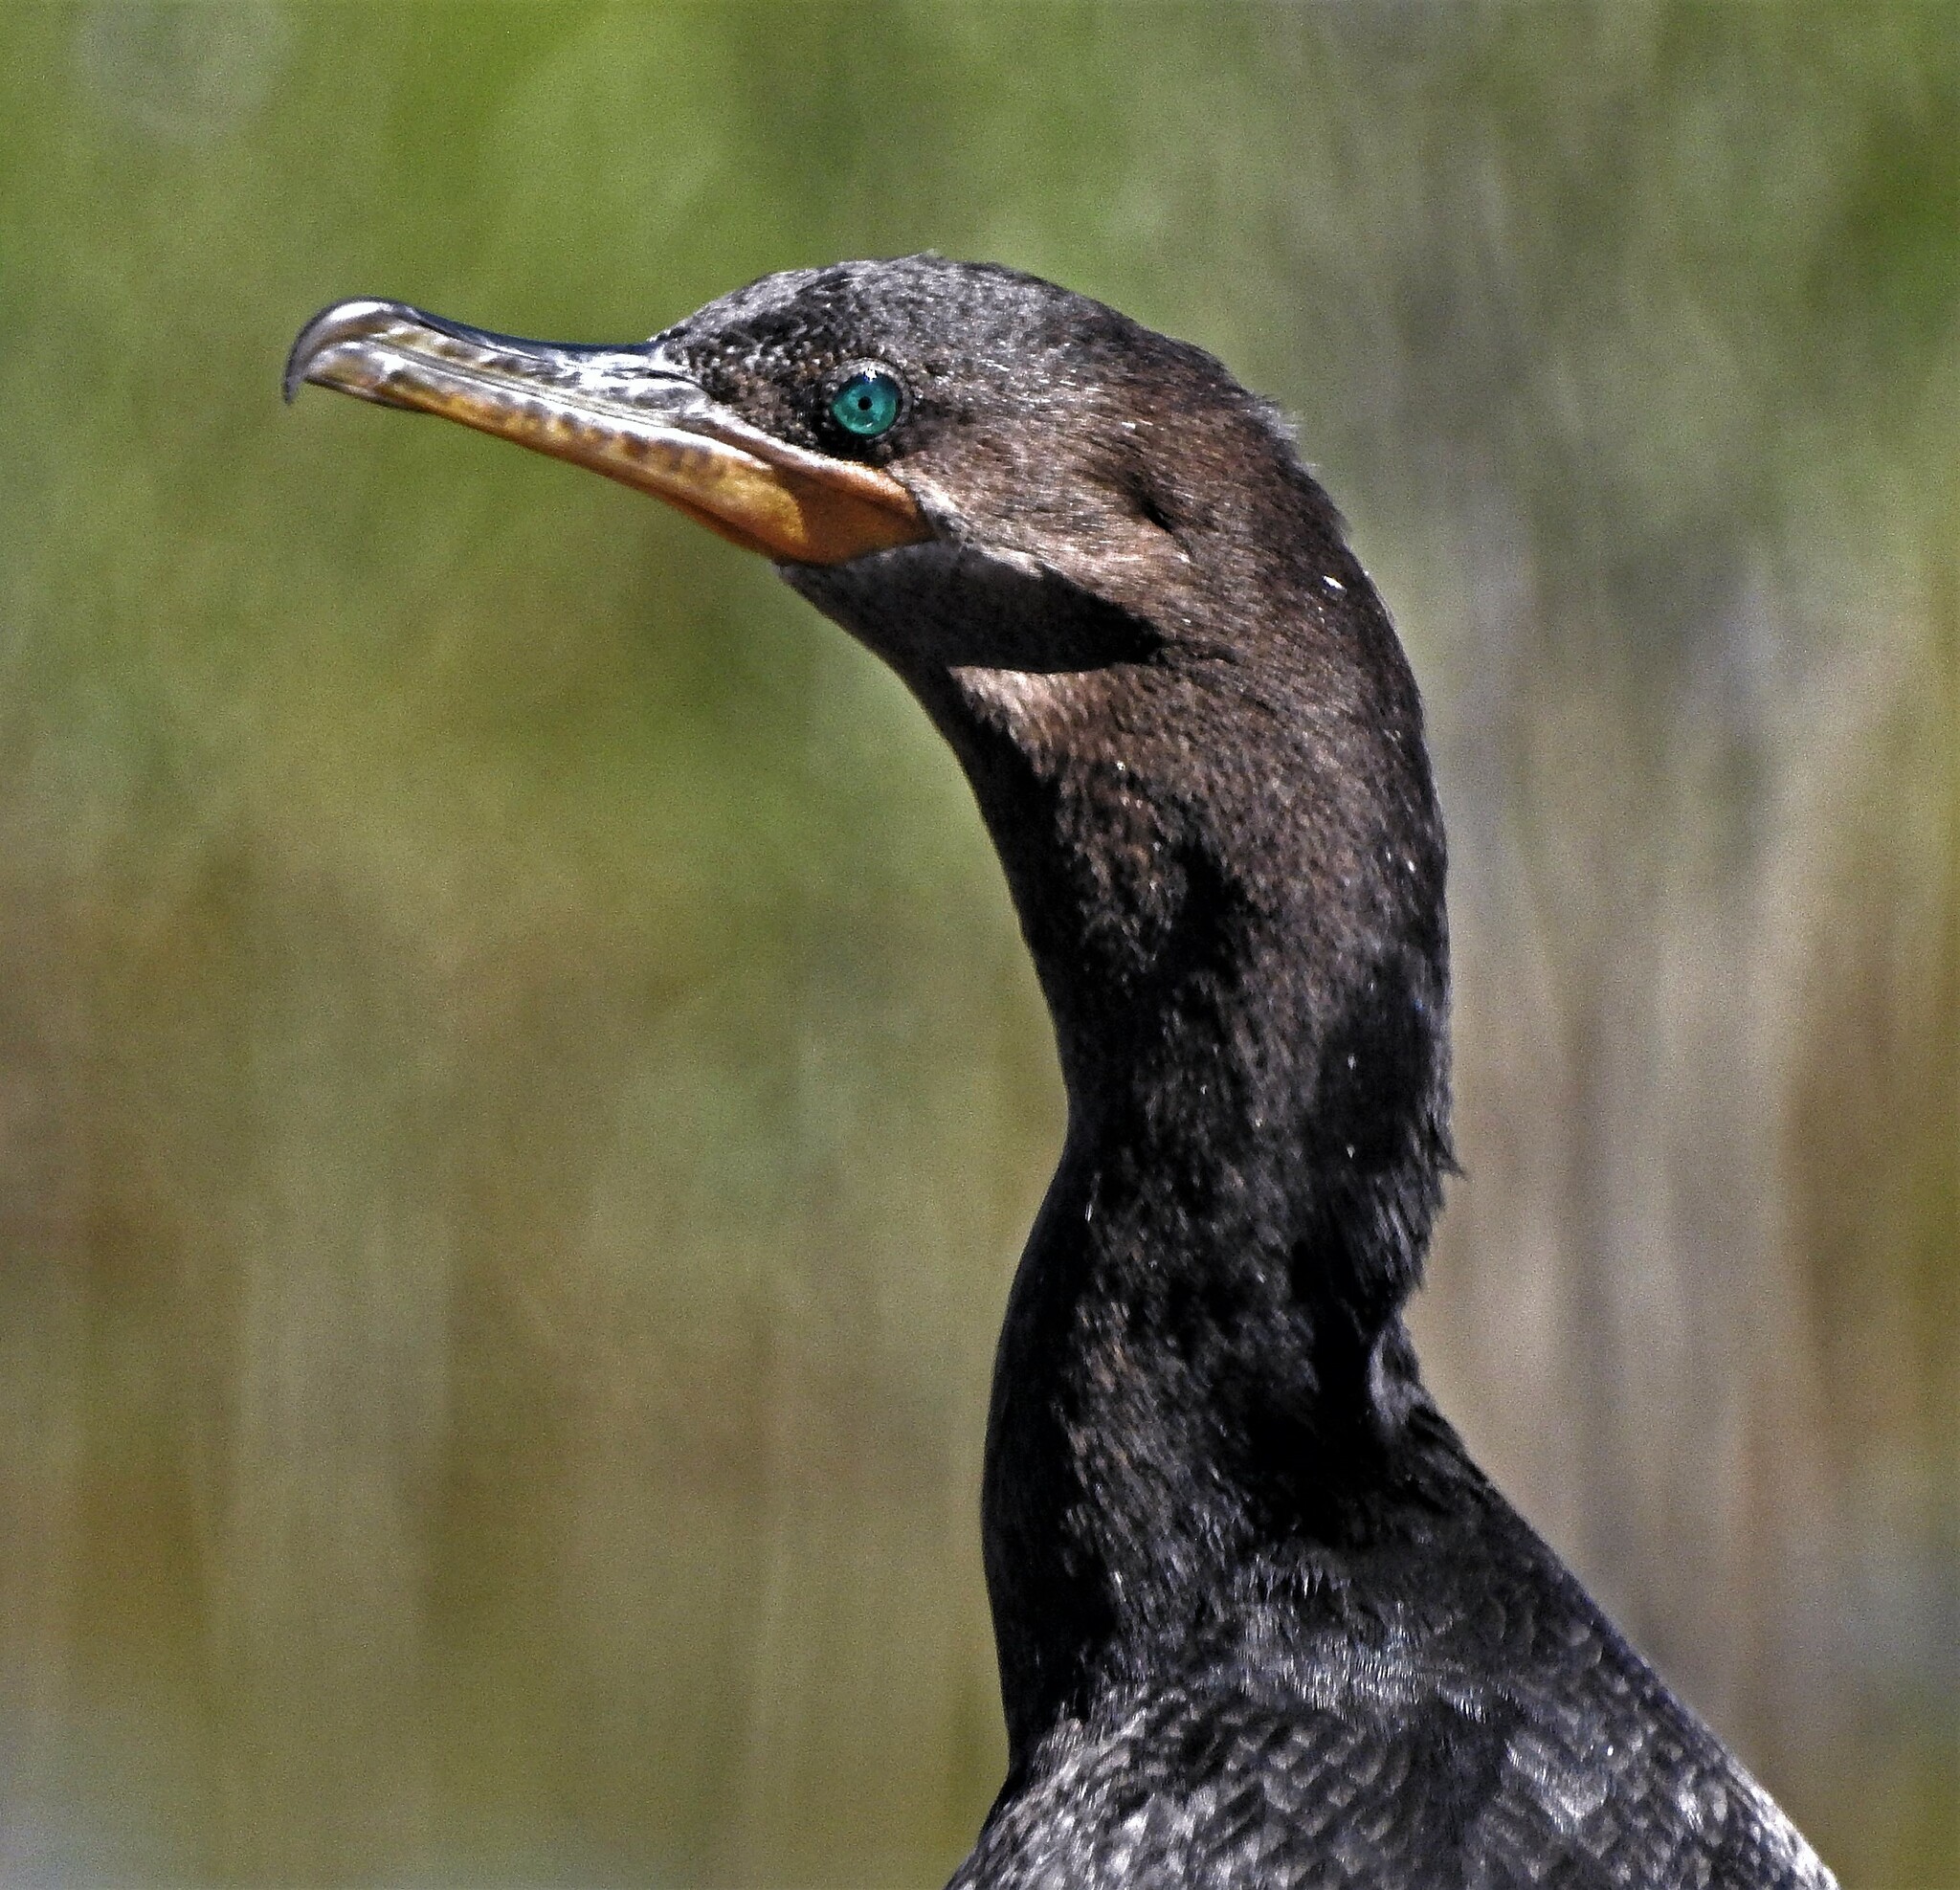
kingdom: Animalia
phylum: Chordata
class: Aves
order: Suliformes
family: Phalacrocoracidae
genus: Phalacrocorax
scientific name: Phalacrocorax brasilianus
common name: Neotropic cormorant
